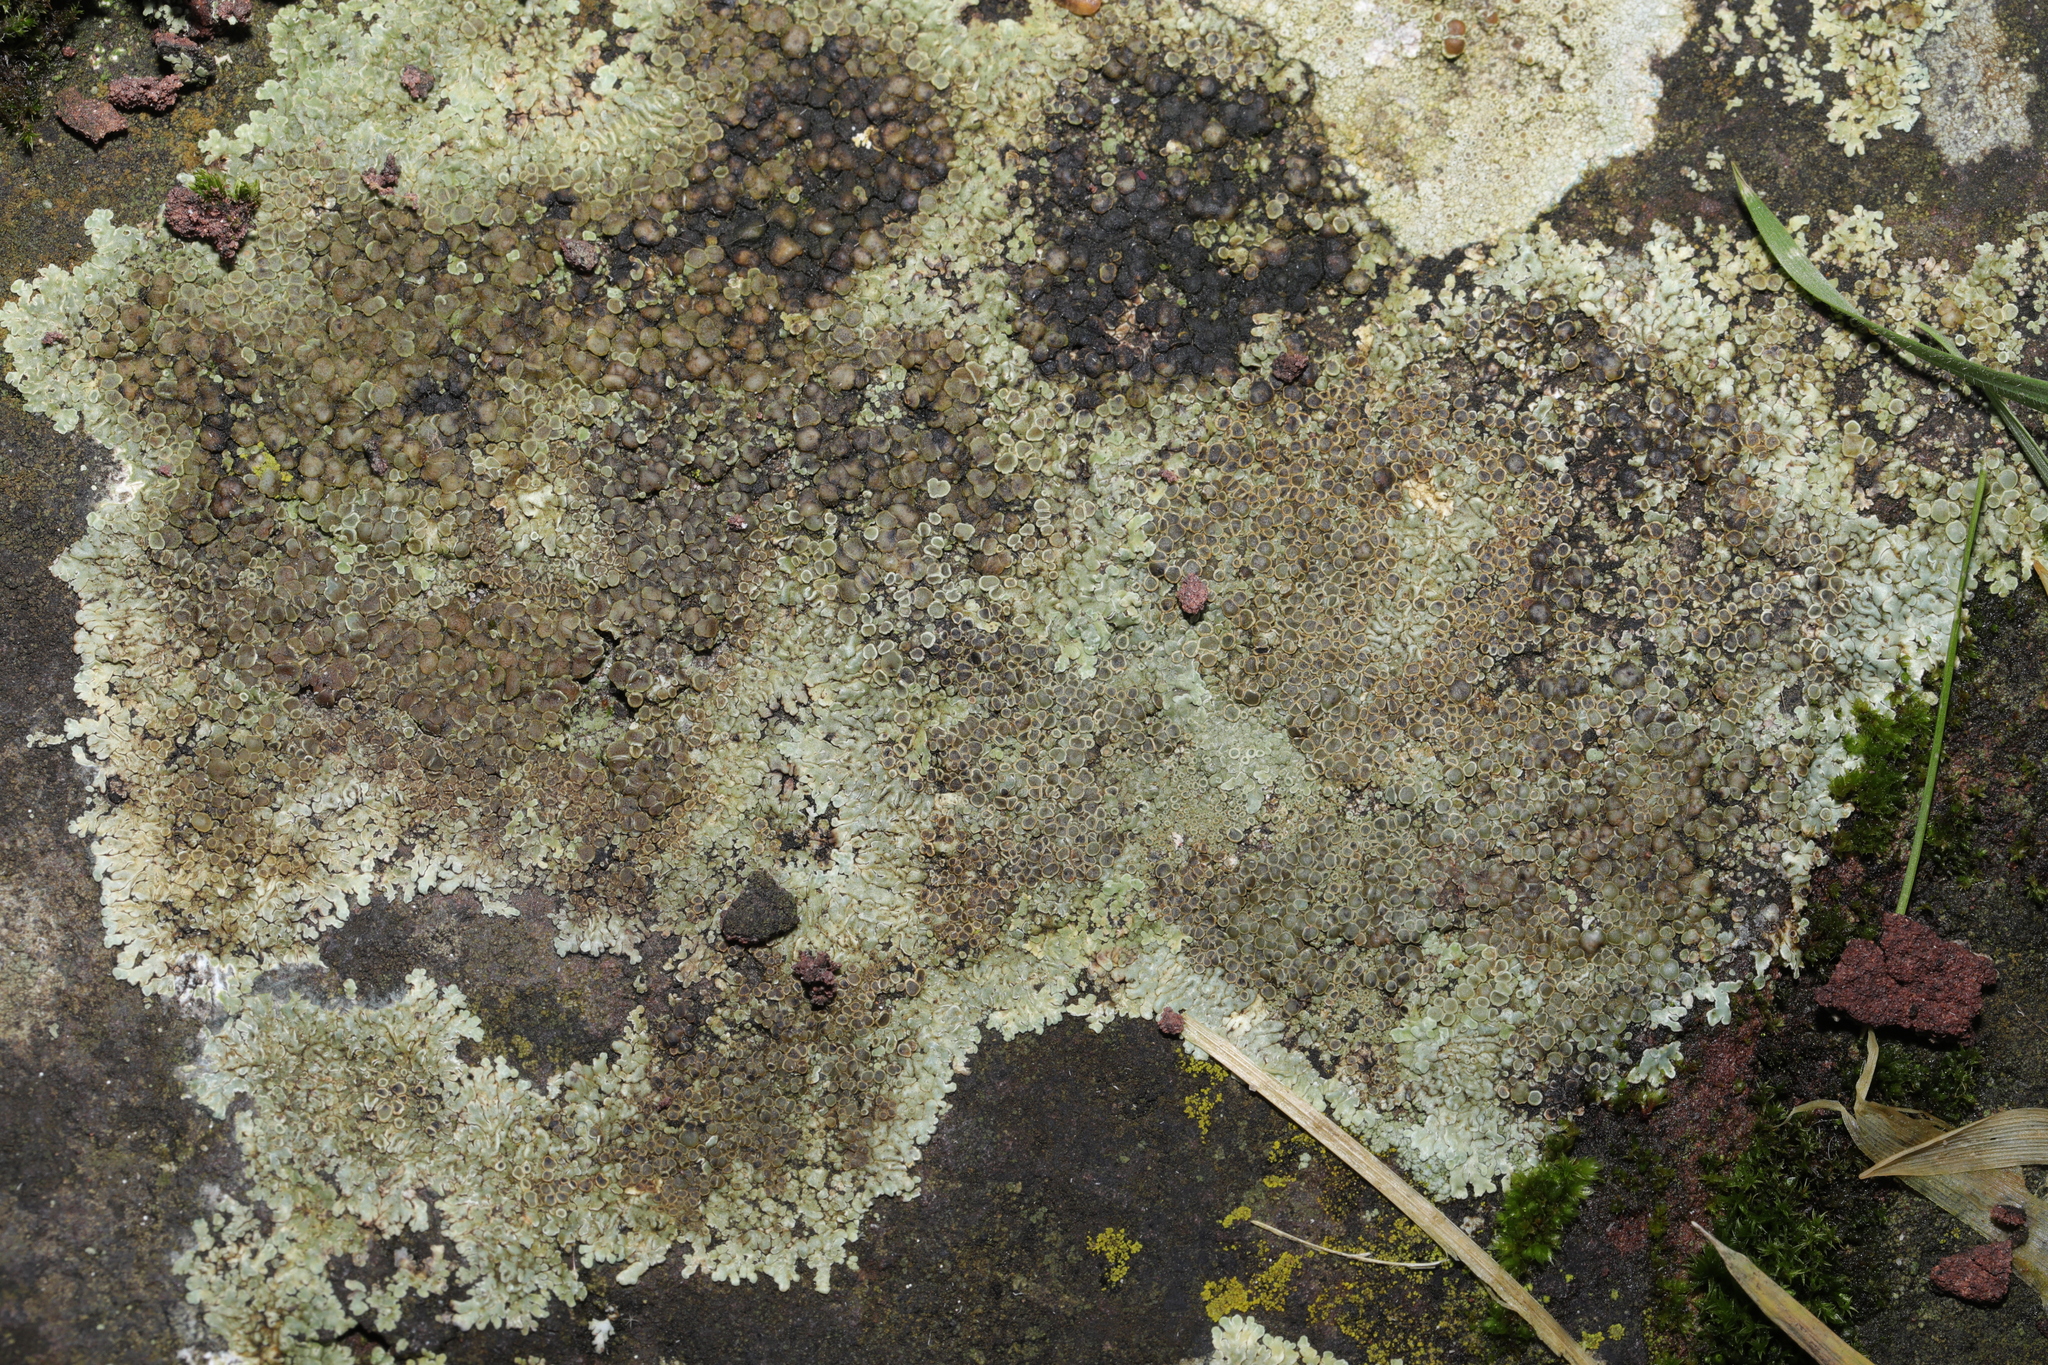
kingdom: Fungi
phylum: Ascomycota
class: Lecanoromycetes
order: Lecanorales
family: Lecanoraceae
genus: Protoparmeliopsis
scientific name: Protoparmeliopsis muralis
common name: Stonewall rim lichen
